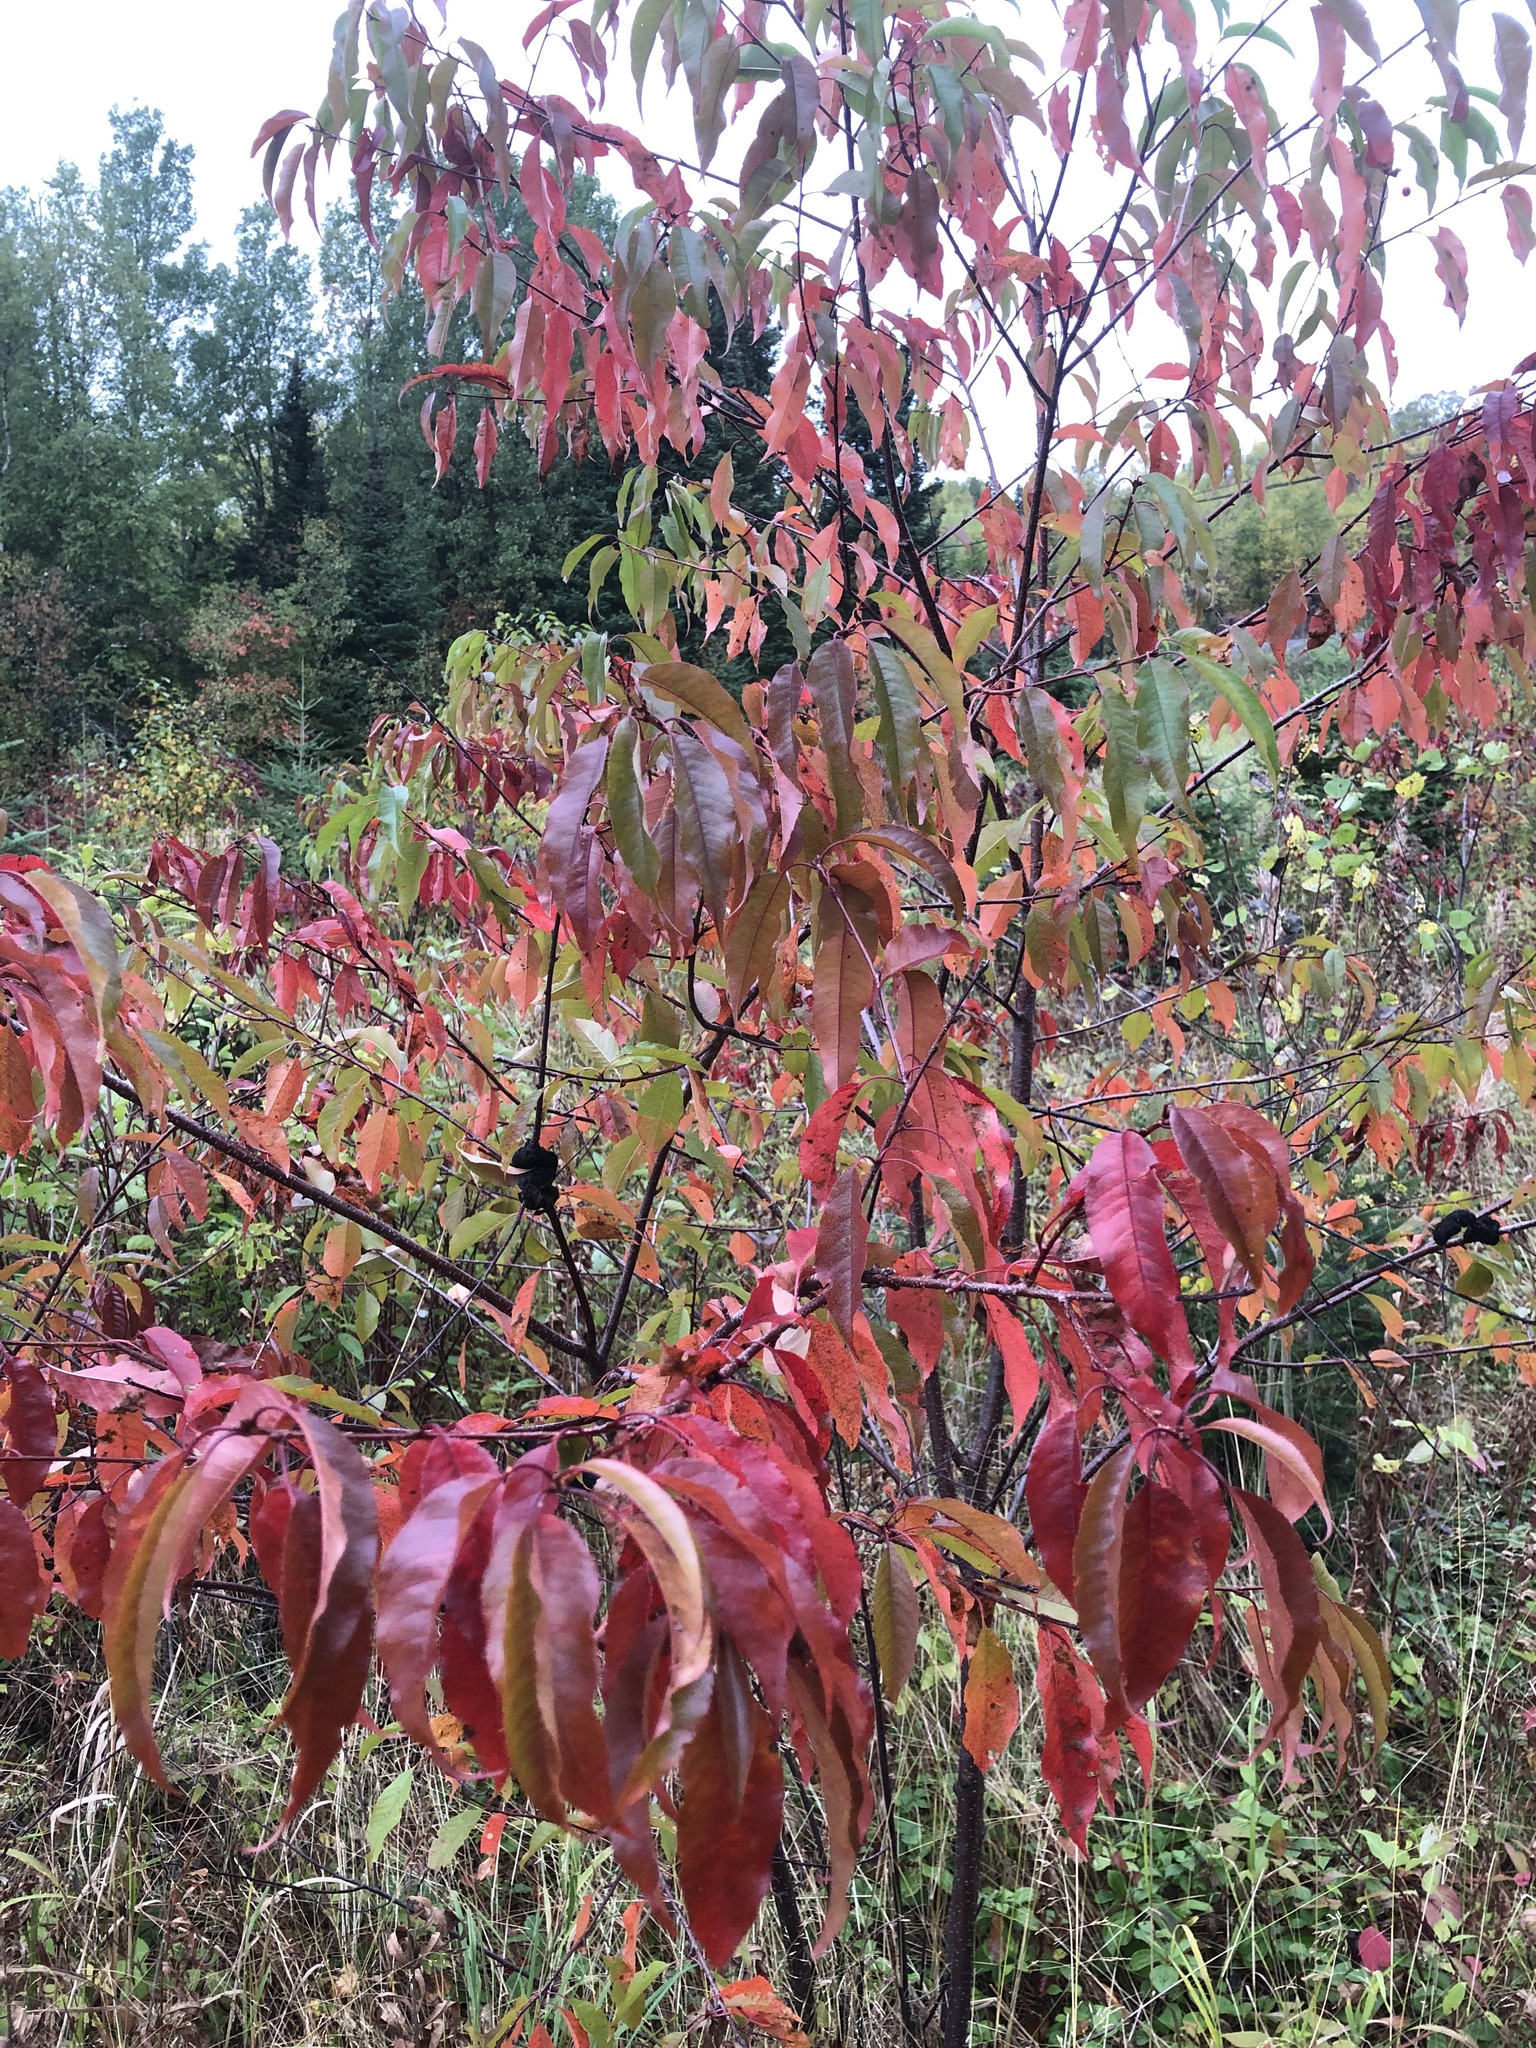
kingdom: Plantae
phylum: Tracheophyta
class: Magnoliopsida
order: Rosales
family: Rosaceae
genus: Prunus
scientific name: Prunus pensylvanica
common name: Pin cherry
